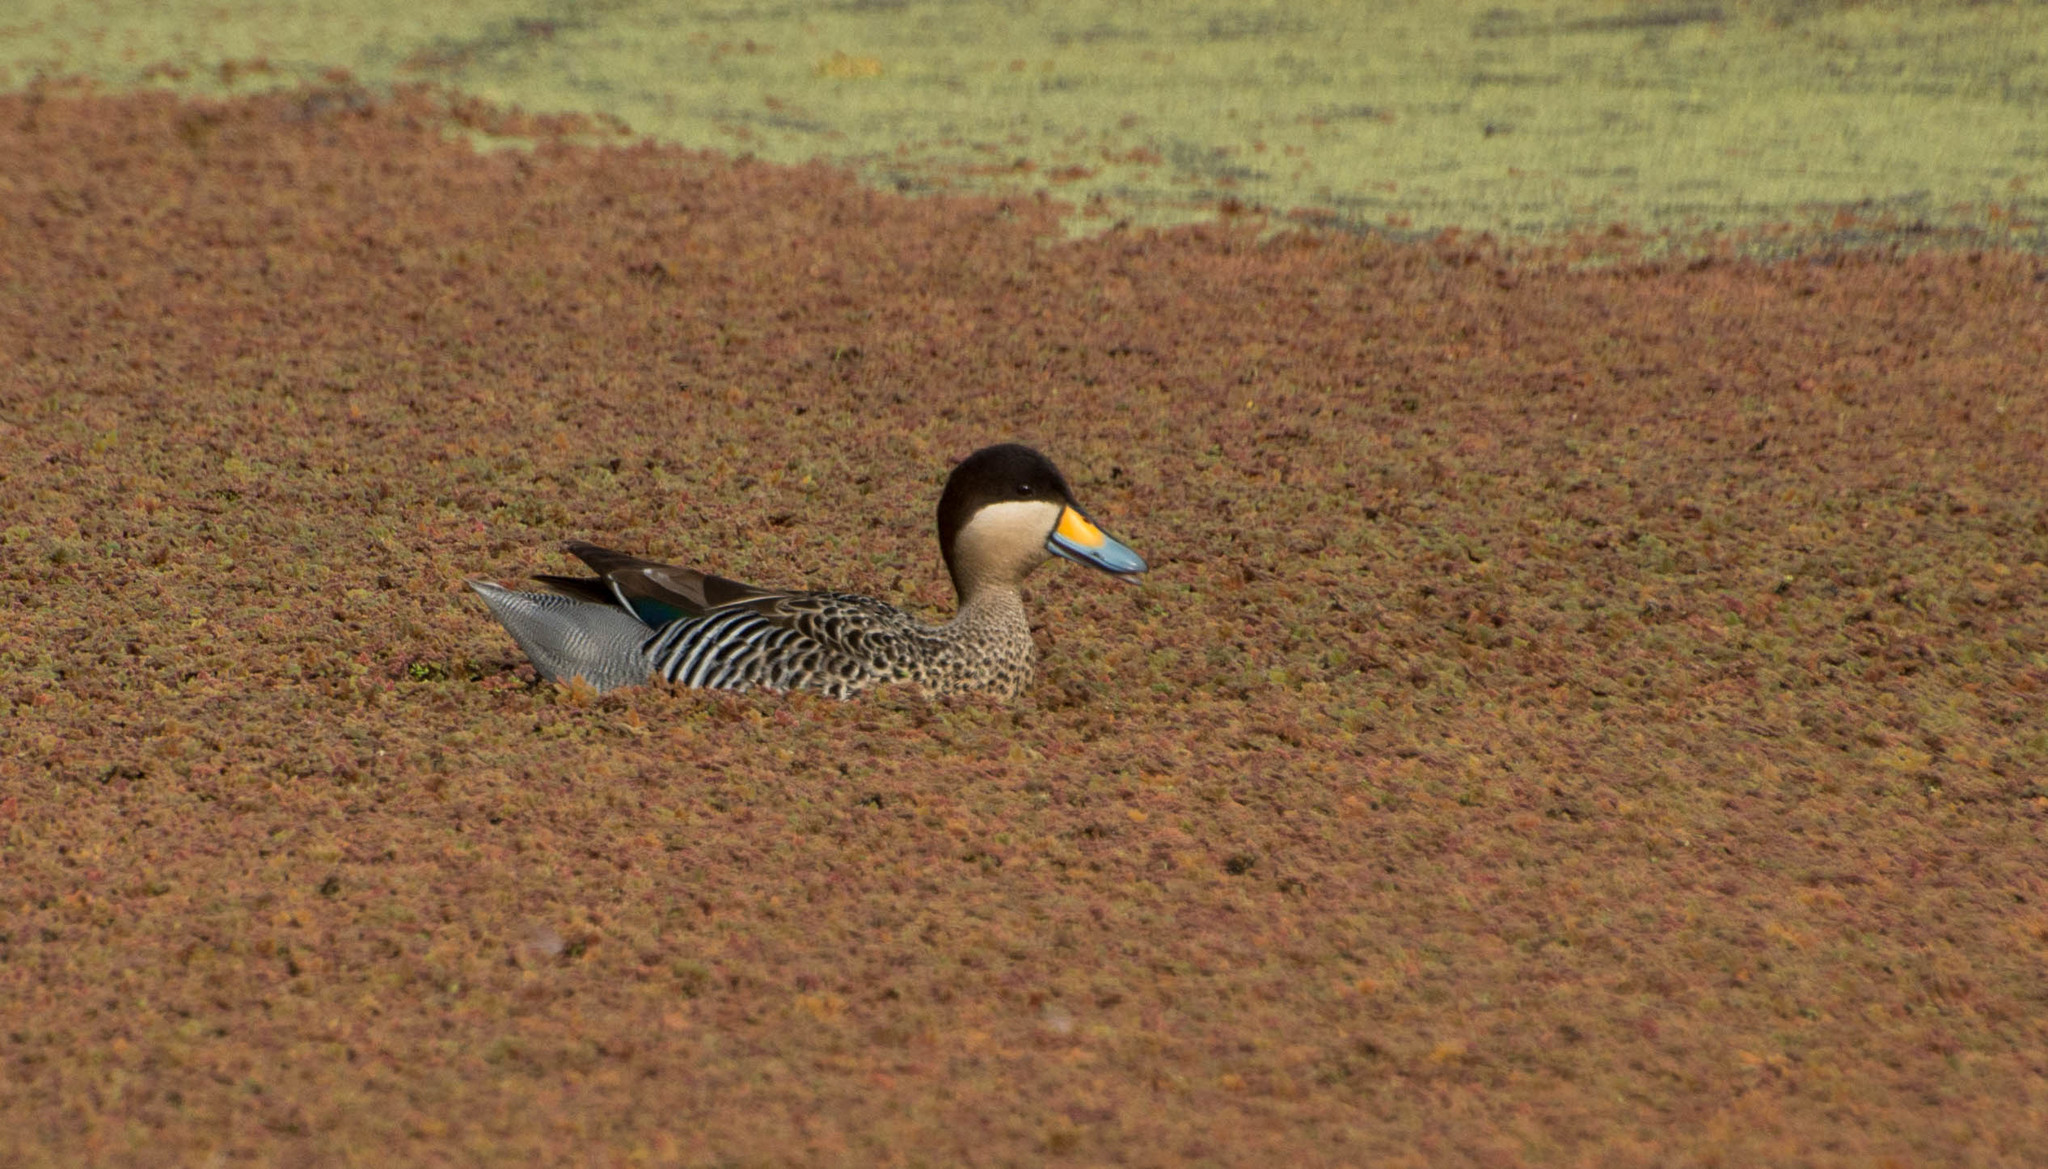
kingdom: Animalia
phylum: Chordata
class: Aves
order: Anseriformes
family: Anatidae
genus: Spatula
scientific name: Spatula versicolor
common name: Silver teal
